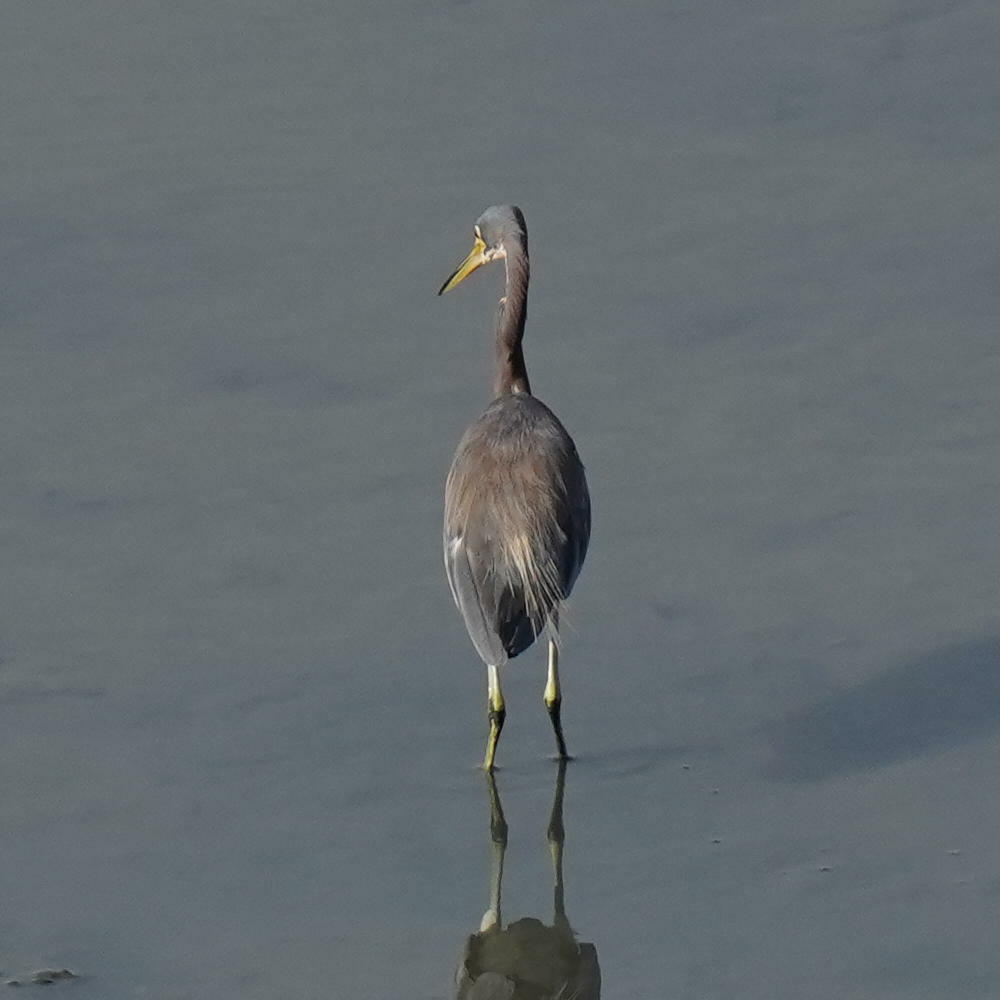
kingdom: Animalia
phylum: Chordata
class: Aves
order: Pelecaniformes
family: Ardeidae
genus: Egretta
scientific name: Egretta tricolor
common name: Tricolored heron
